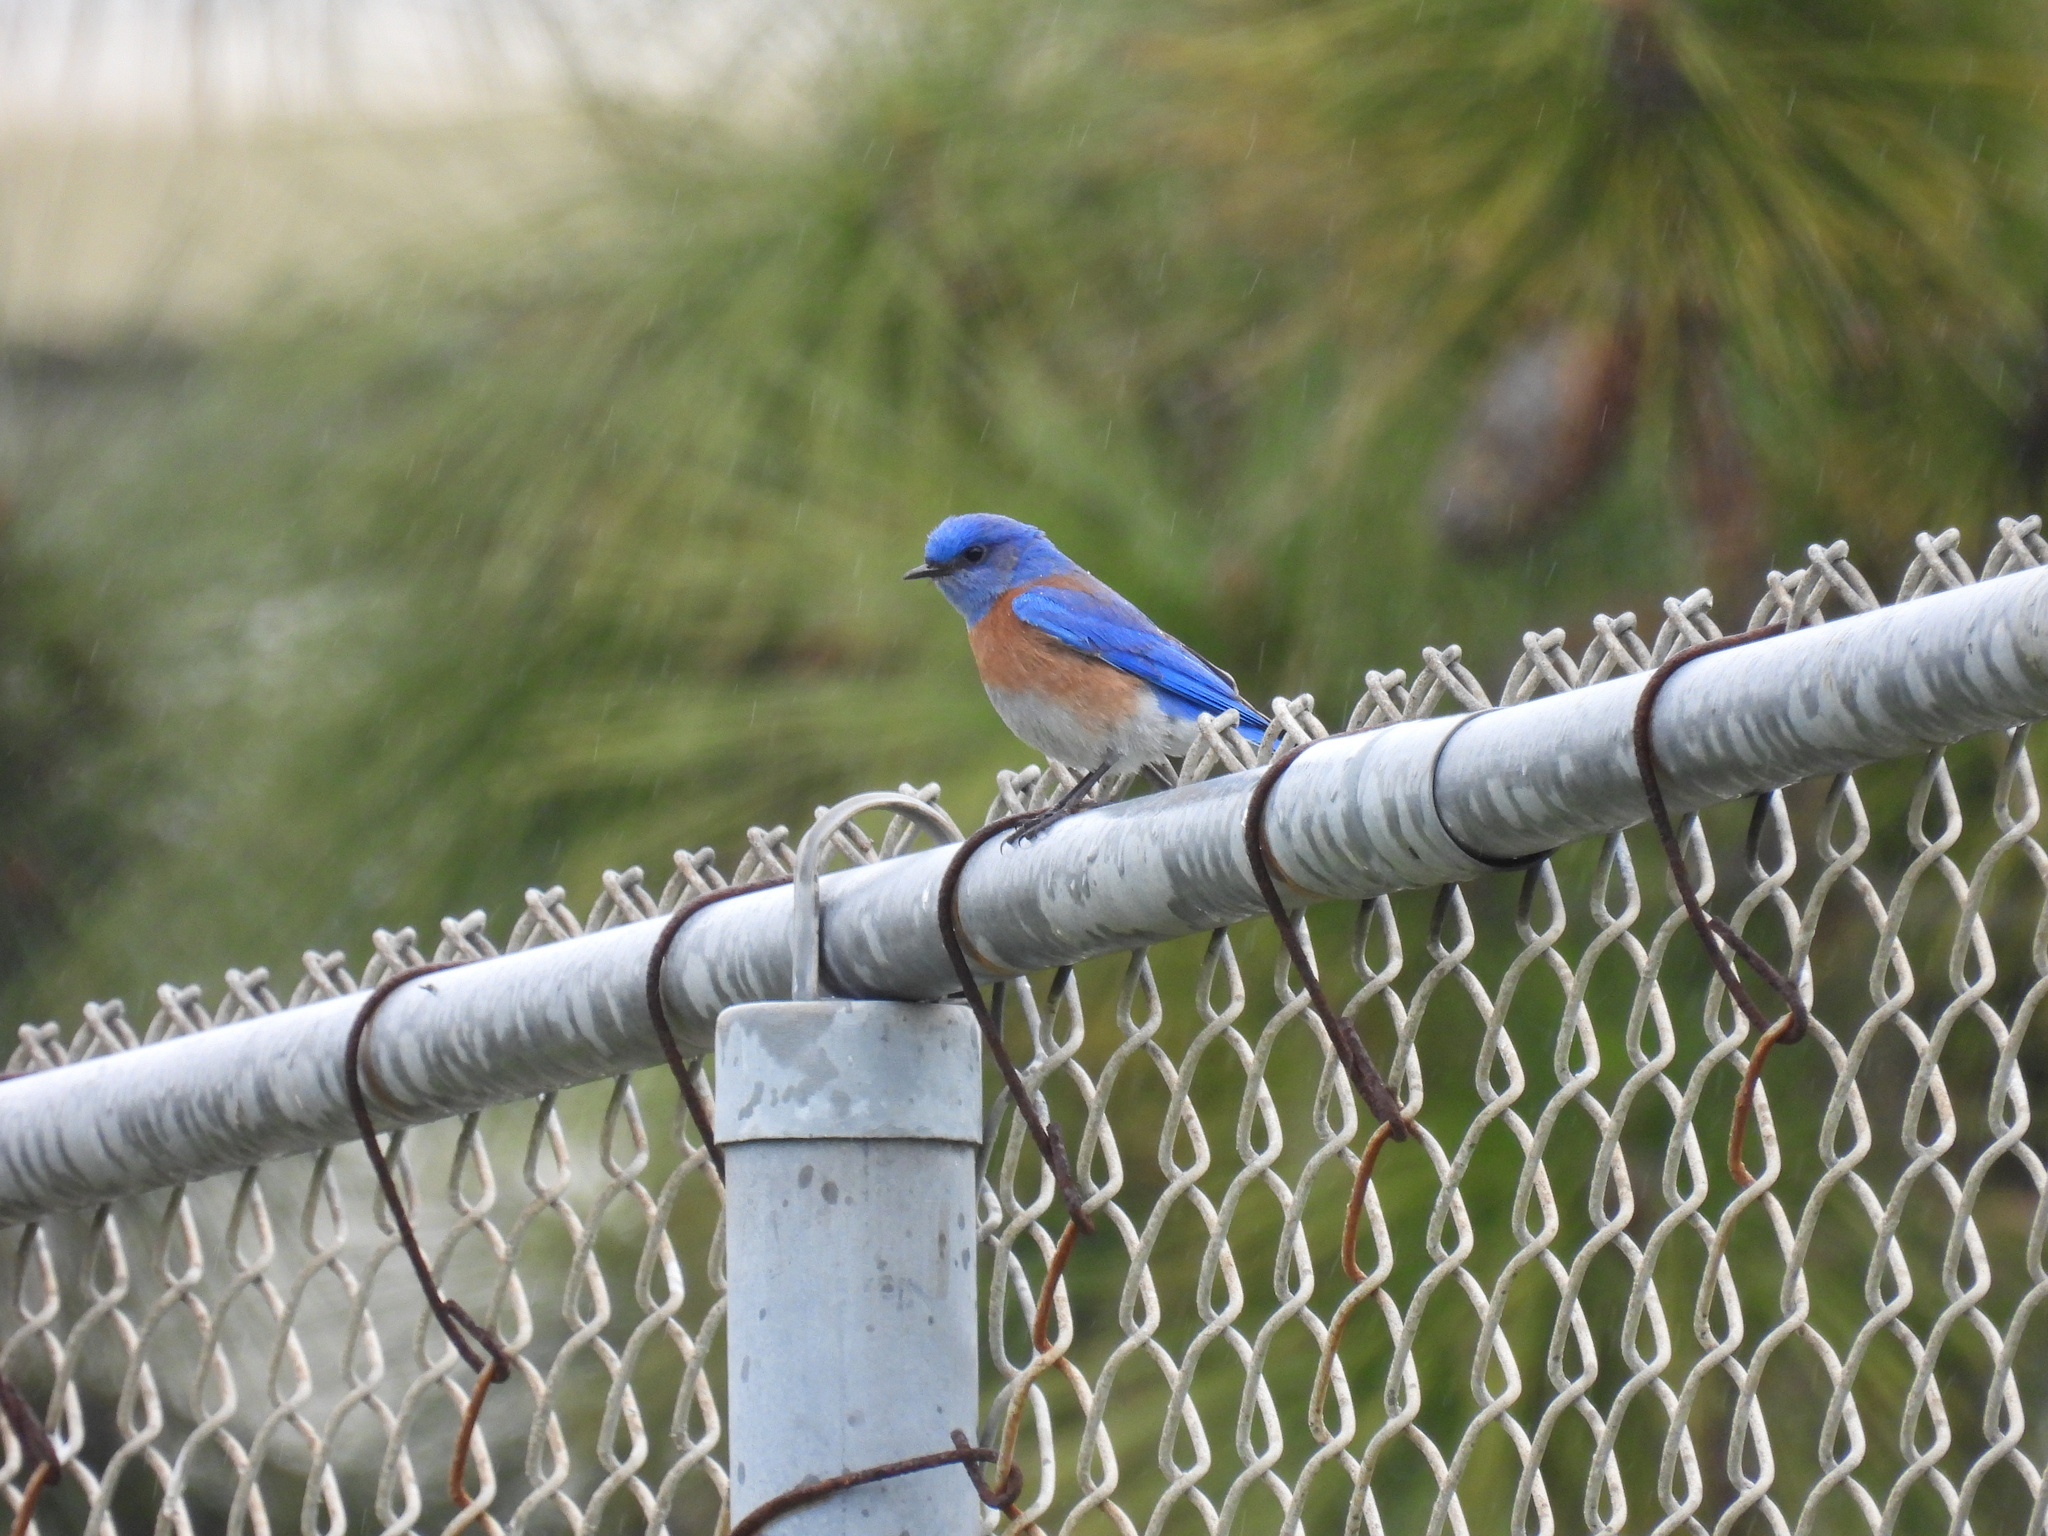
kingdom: Animalia
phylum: Chordata
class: Aves
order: Passeriformes
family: Turdidae
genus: Sialia
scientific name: Sialia mexicana
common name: Western bluebird
